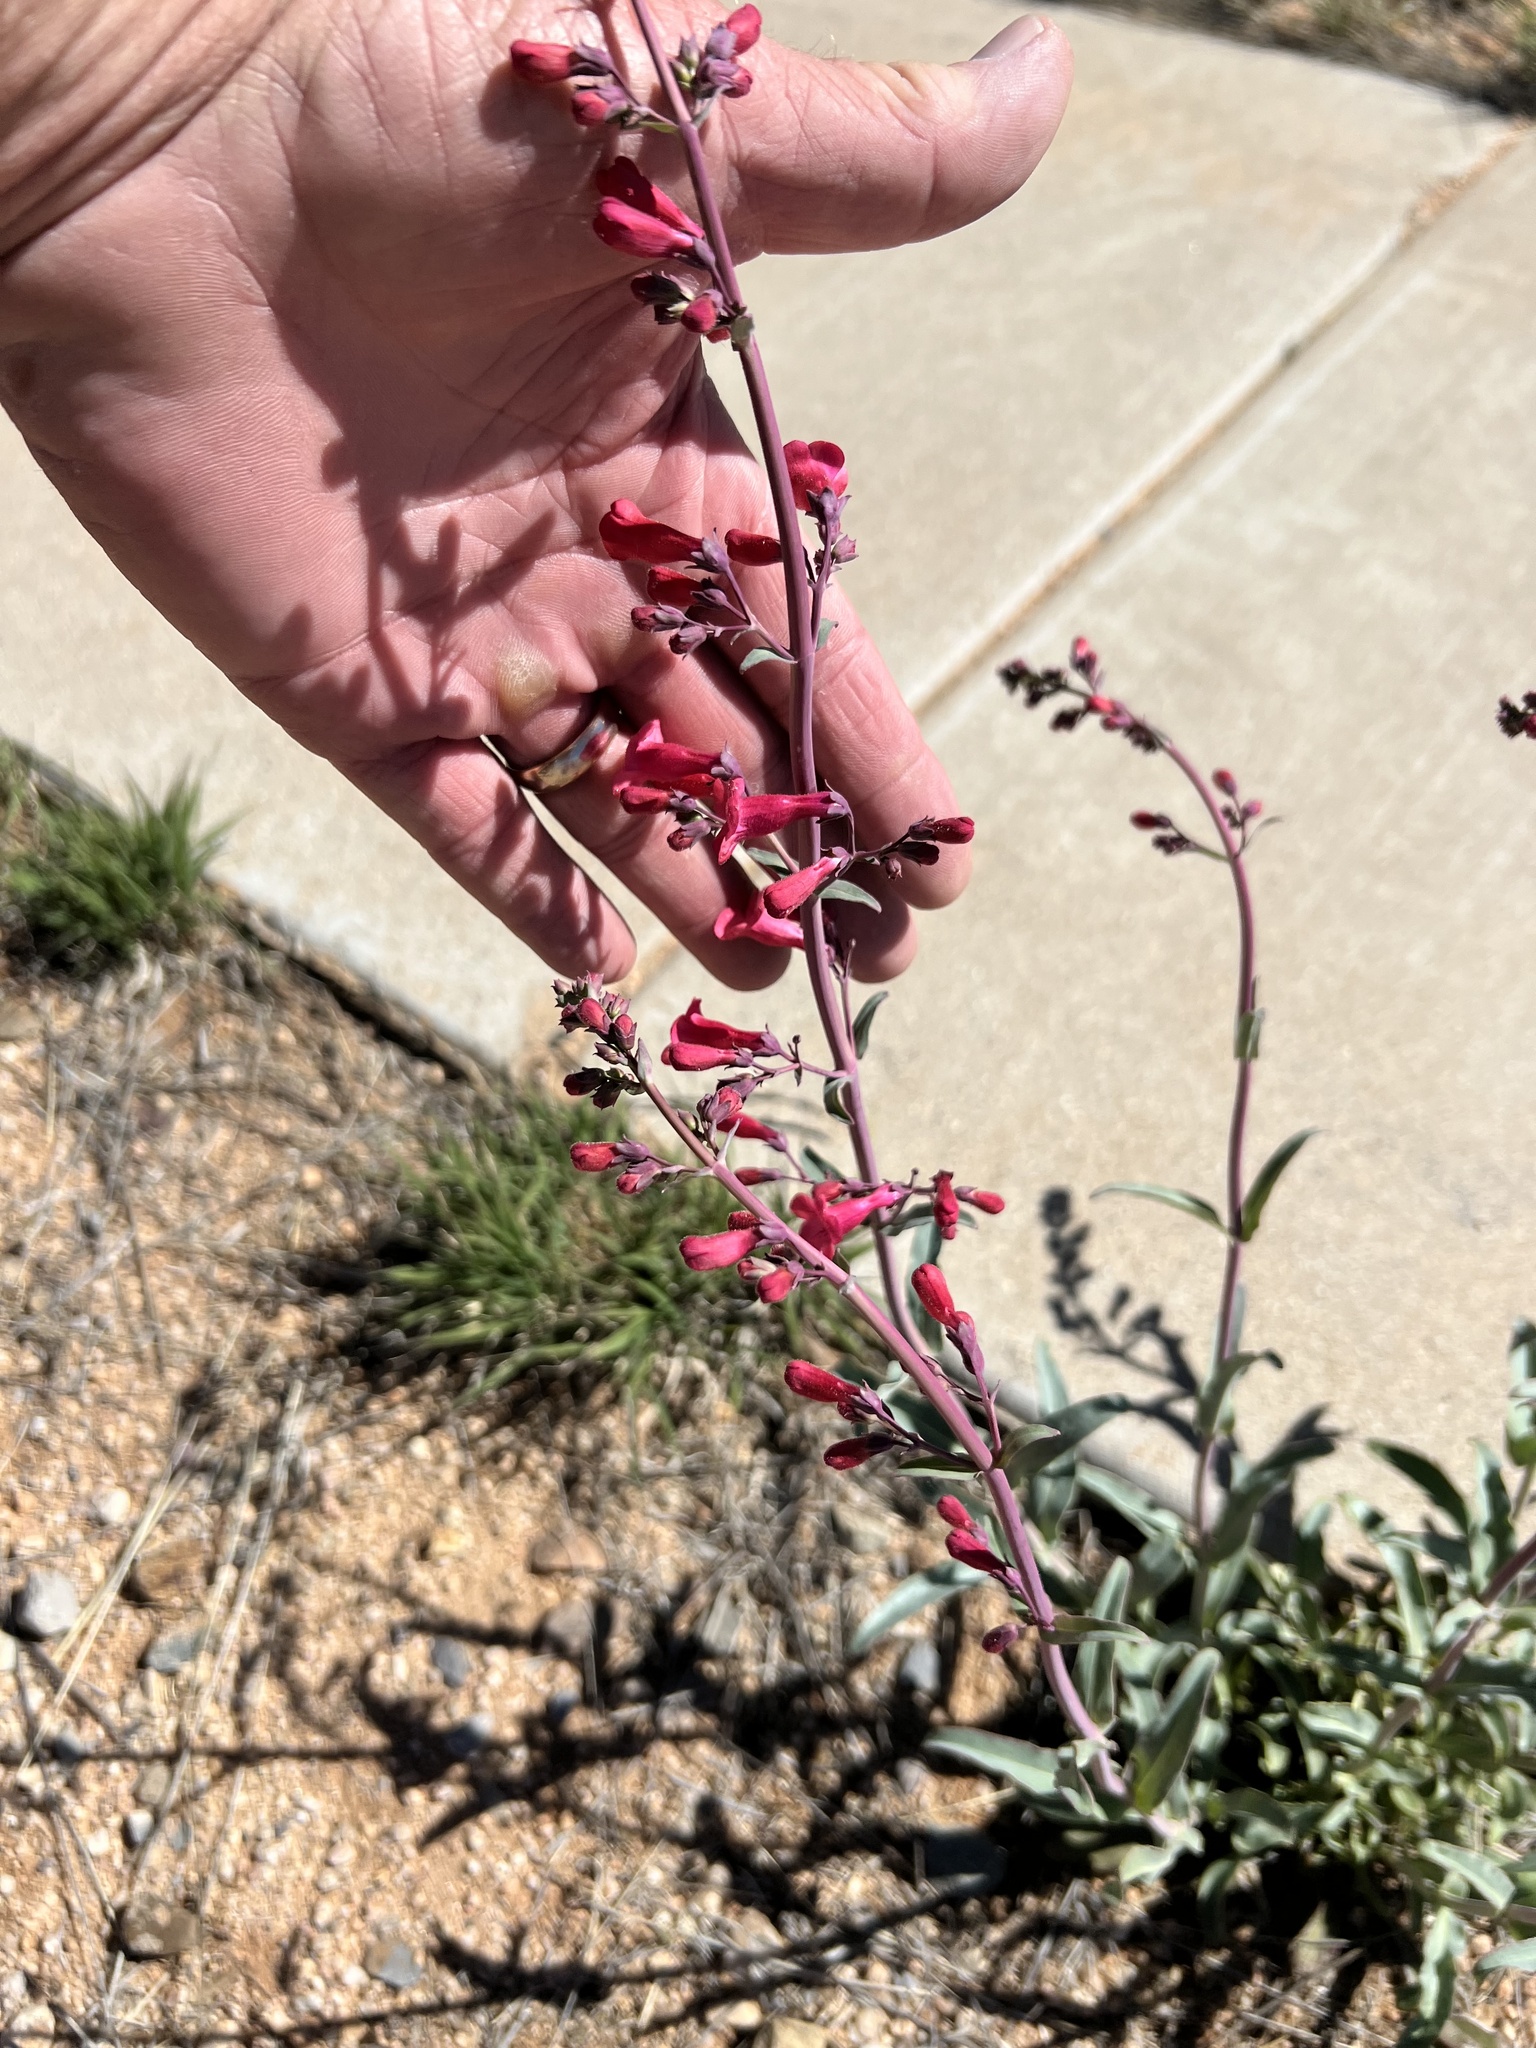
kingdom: Plantae
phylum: Tracheophyta
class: Magnoliopsida
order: Lamiales
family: Plantaginaceae
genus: Penstemon
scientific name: Penstemon parryi
